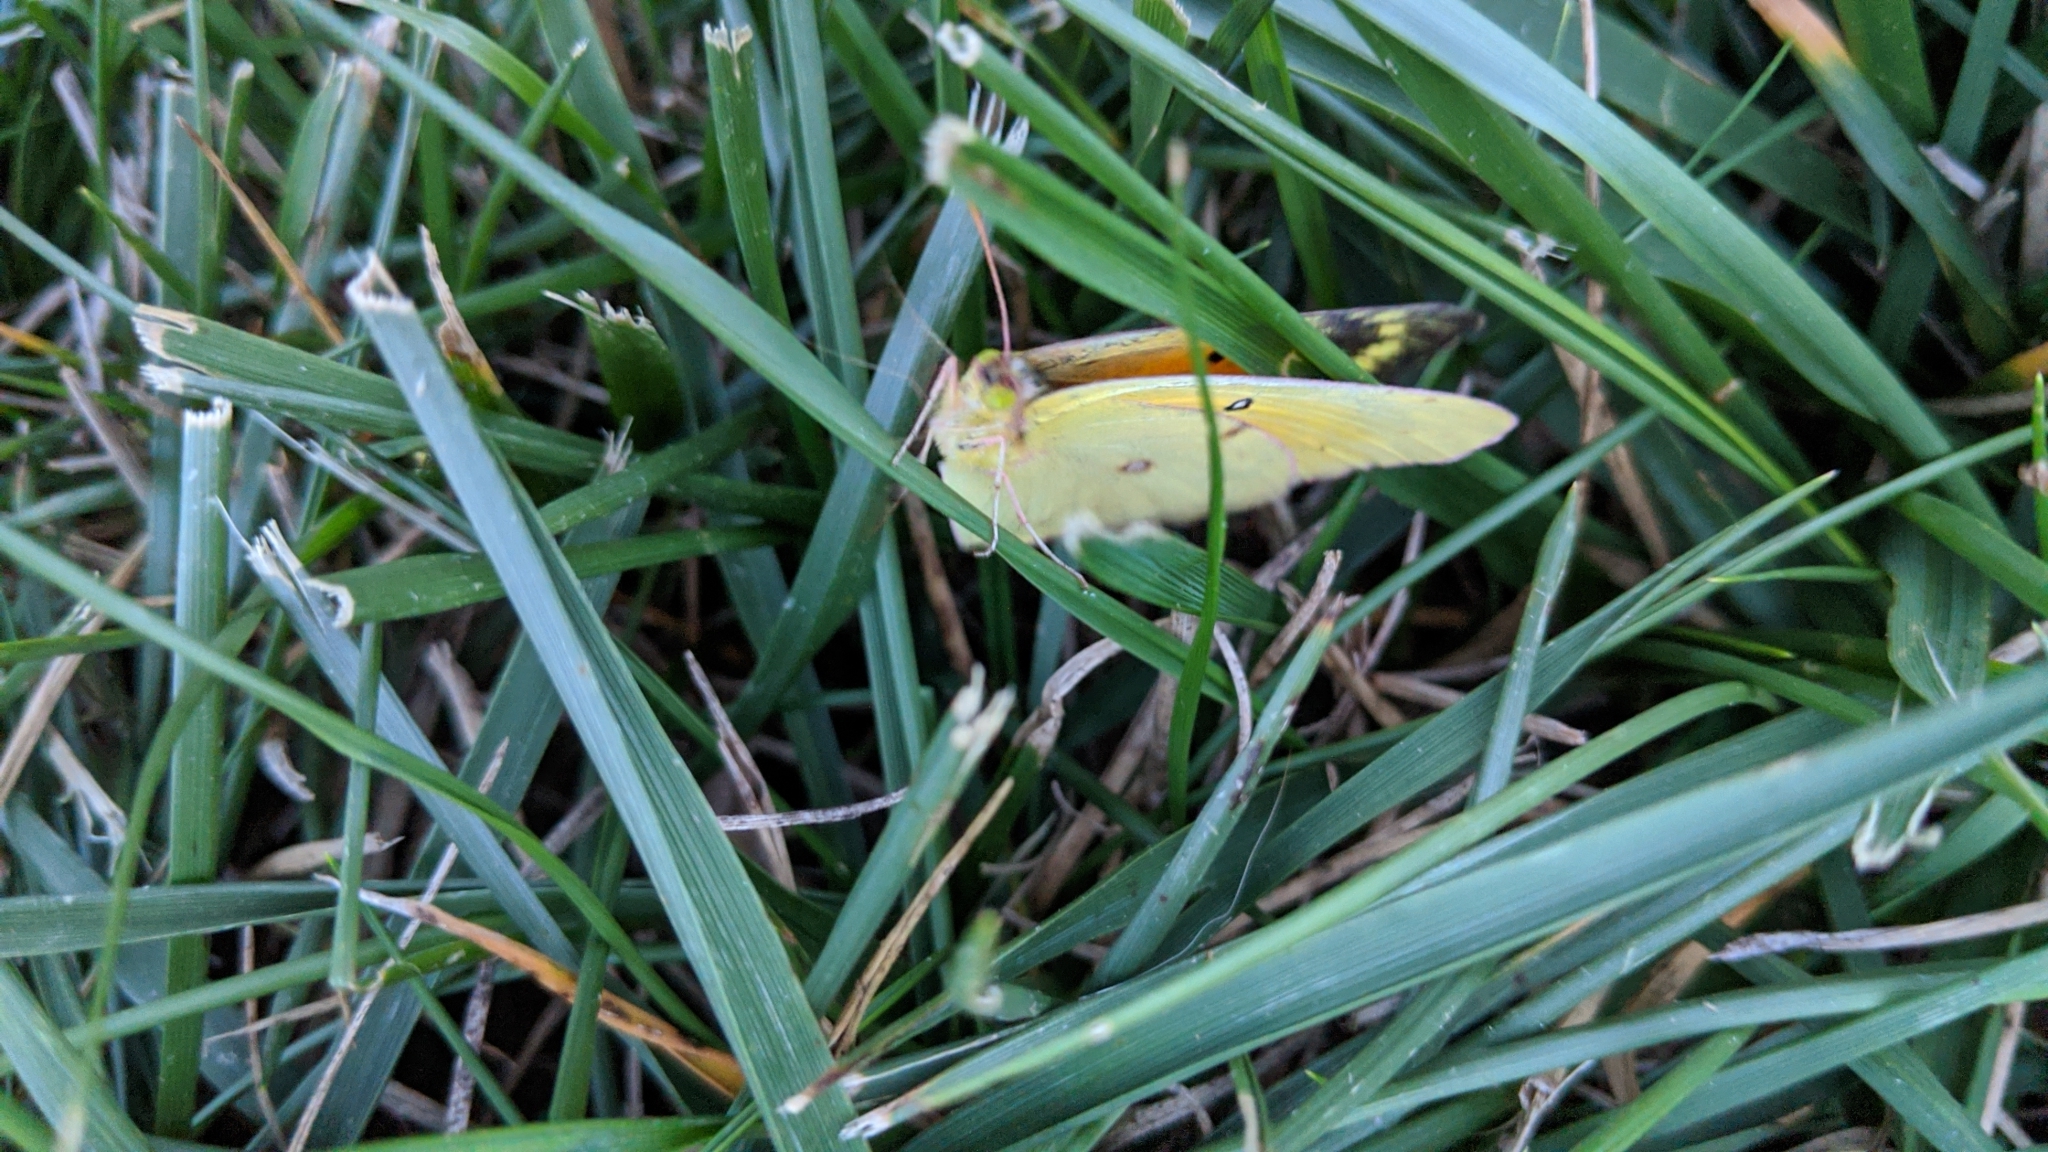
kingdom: Animalia
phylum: Arthropoda
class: Insecta
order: Lepidoptera
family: Pieridae
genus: Colias
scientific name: Colias eurytheme
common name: Alfalfa butterfly
